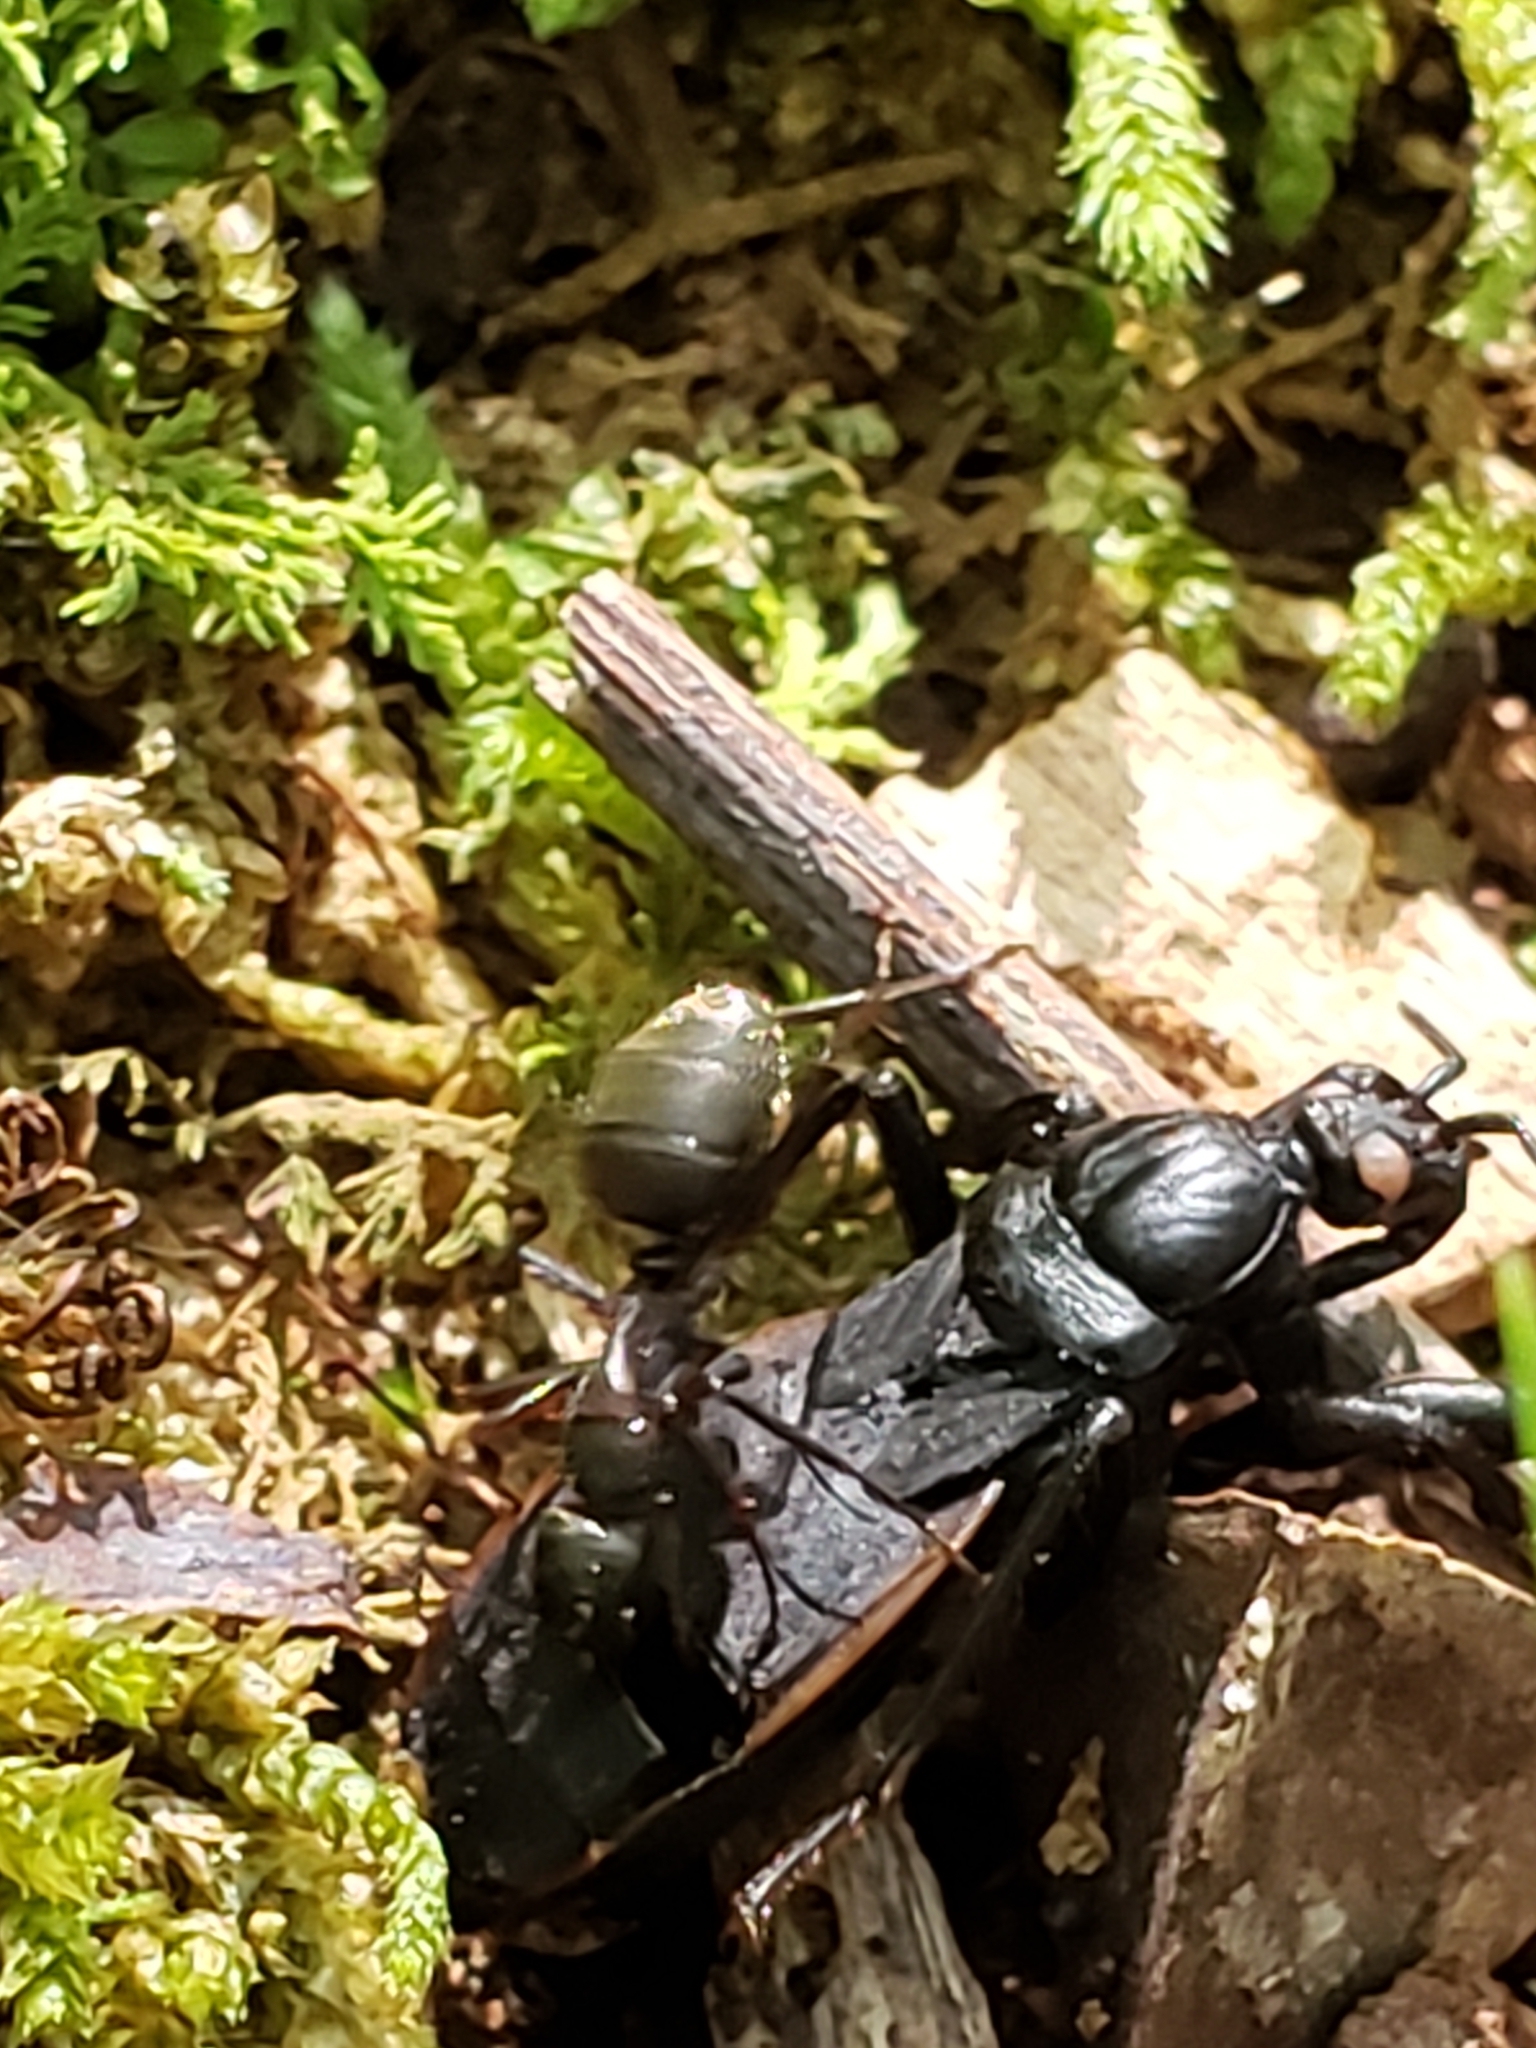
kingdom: Animalia
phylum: Arthropoda
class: Insecta
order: Hemiptera
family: Reduviidae
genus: Melanolestes
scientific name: Melanolestes picipes
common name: Assassin bug
